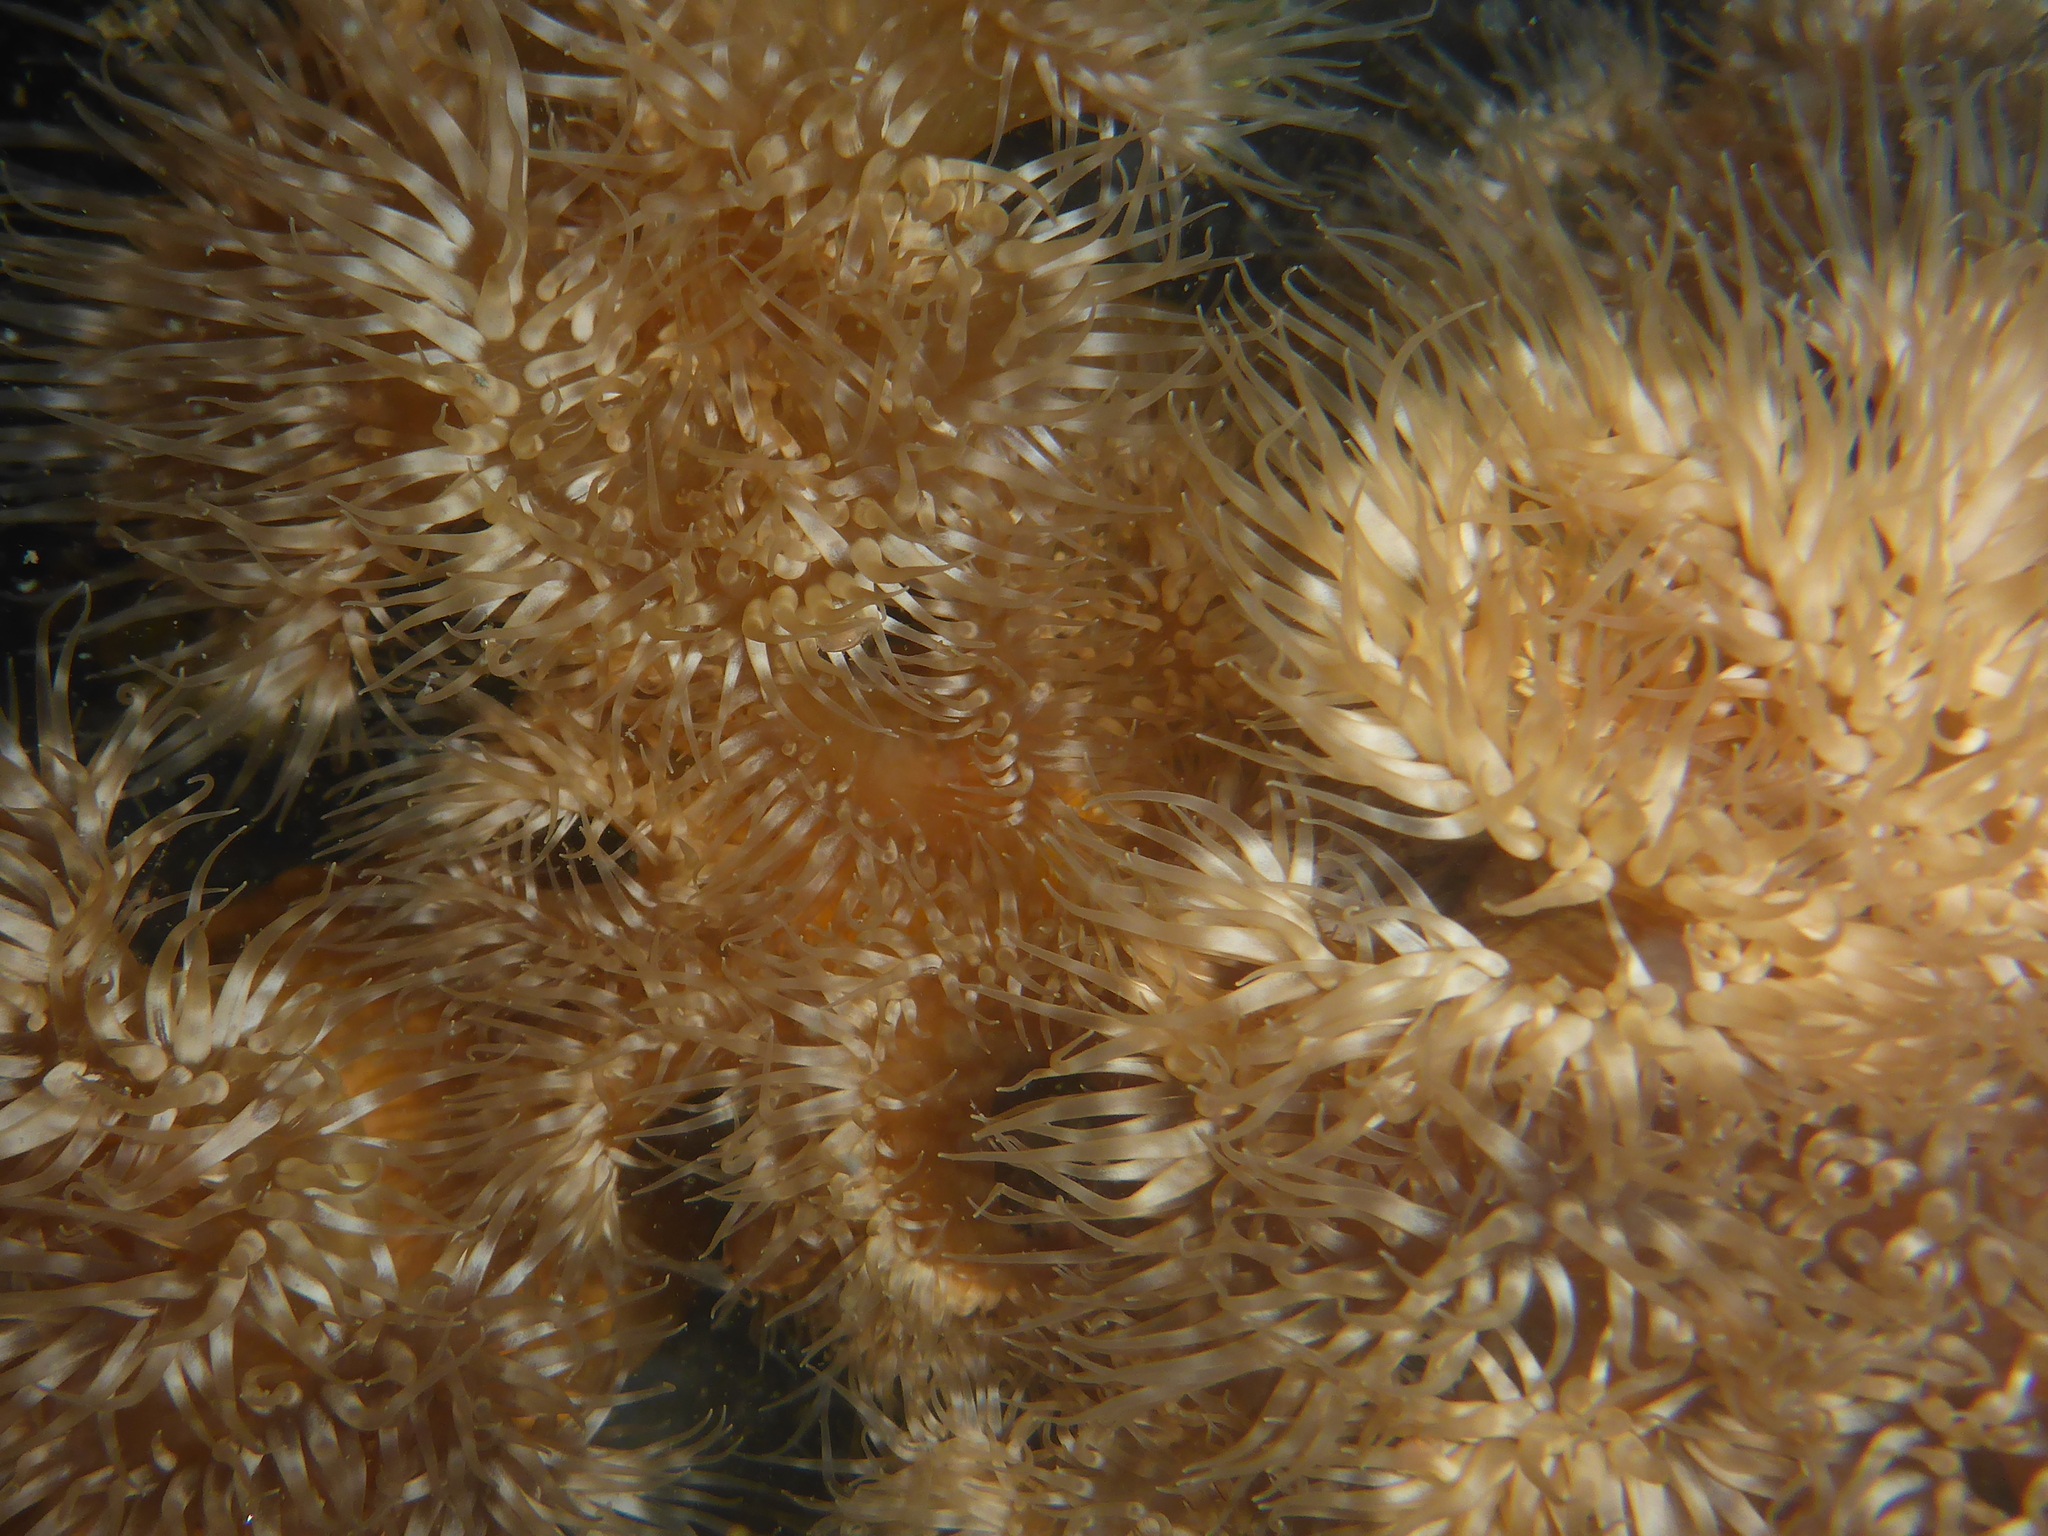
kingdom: Animalia
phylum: Cnidaria
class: Anthozoa
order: Actiniaria
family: Metridiidae
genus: Metridium
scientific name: Metridium senile
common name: Clonal plumose anemone
